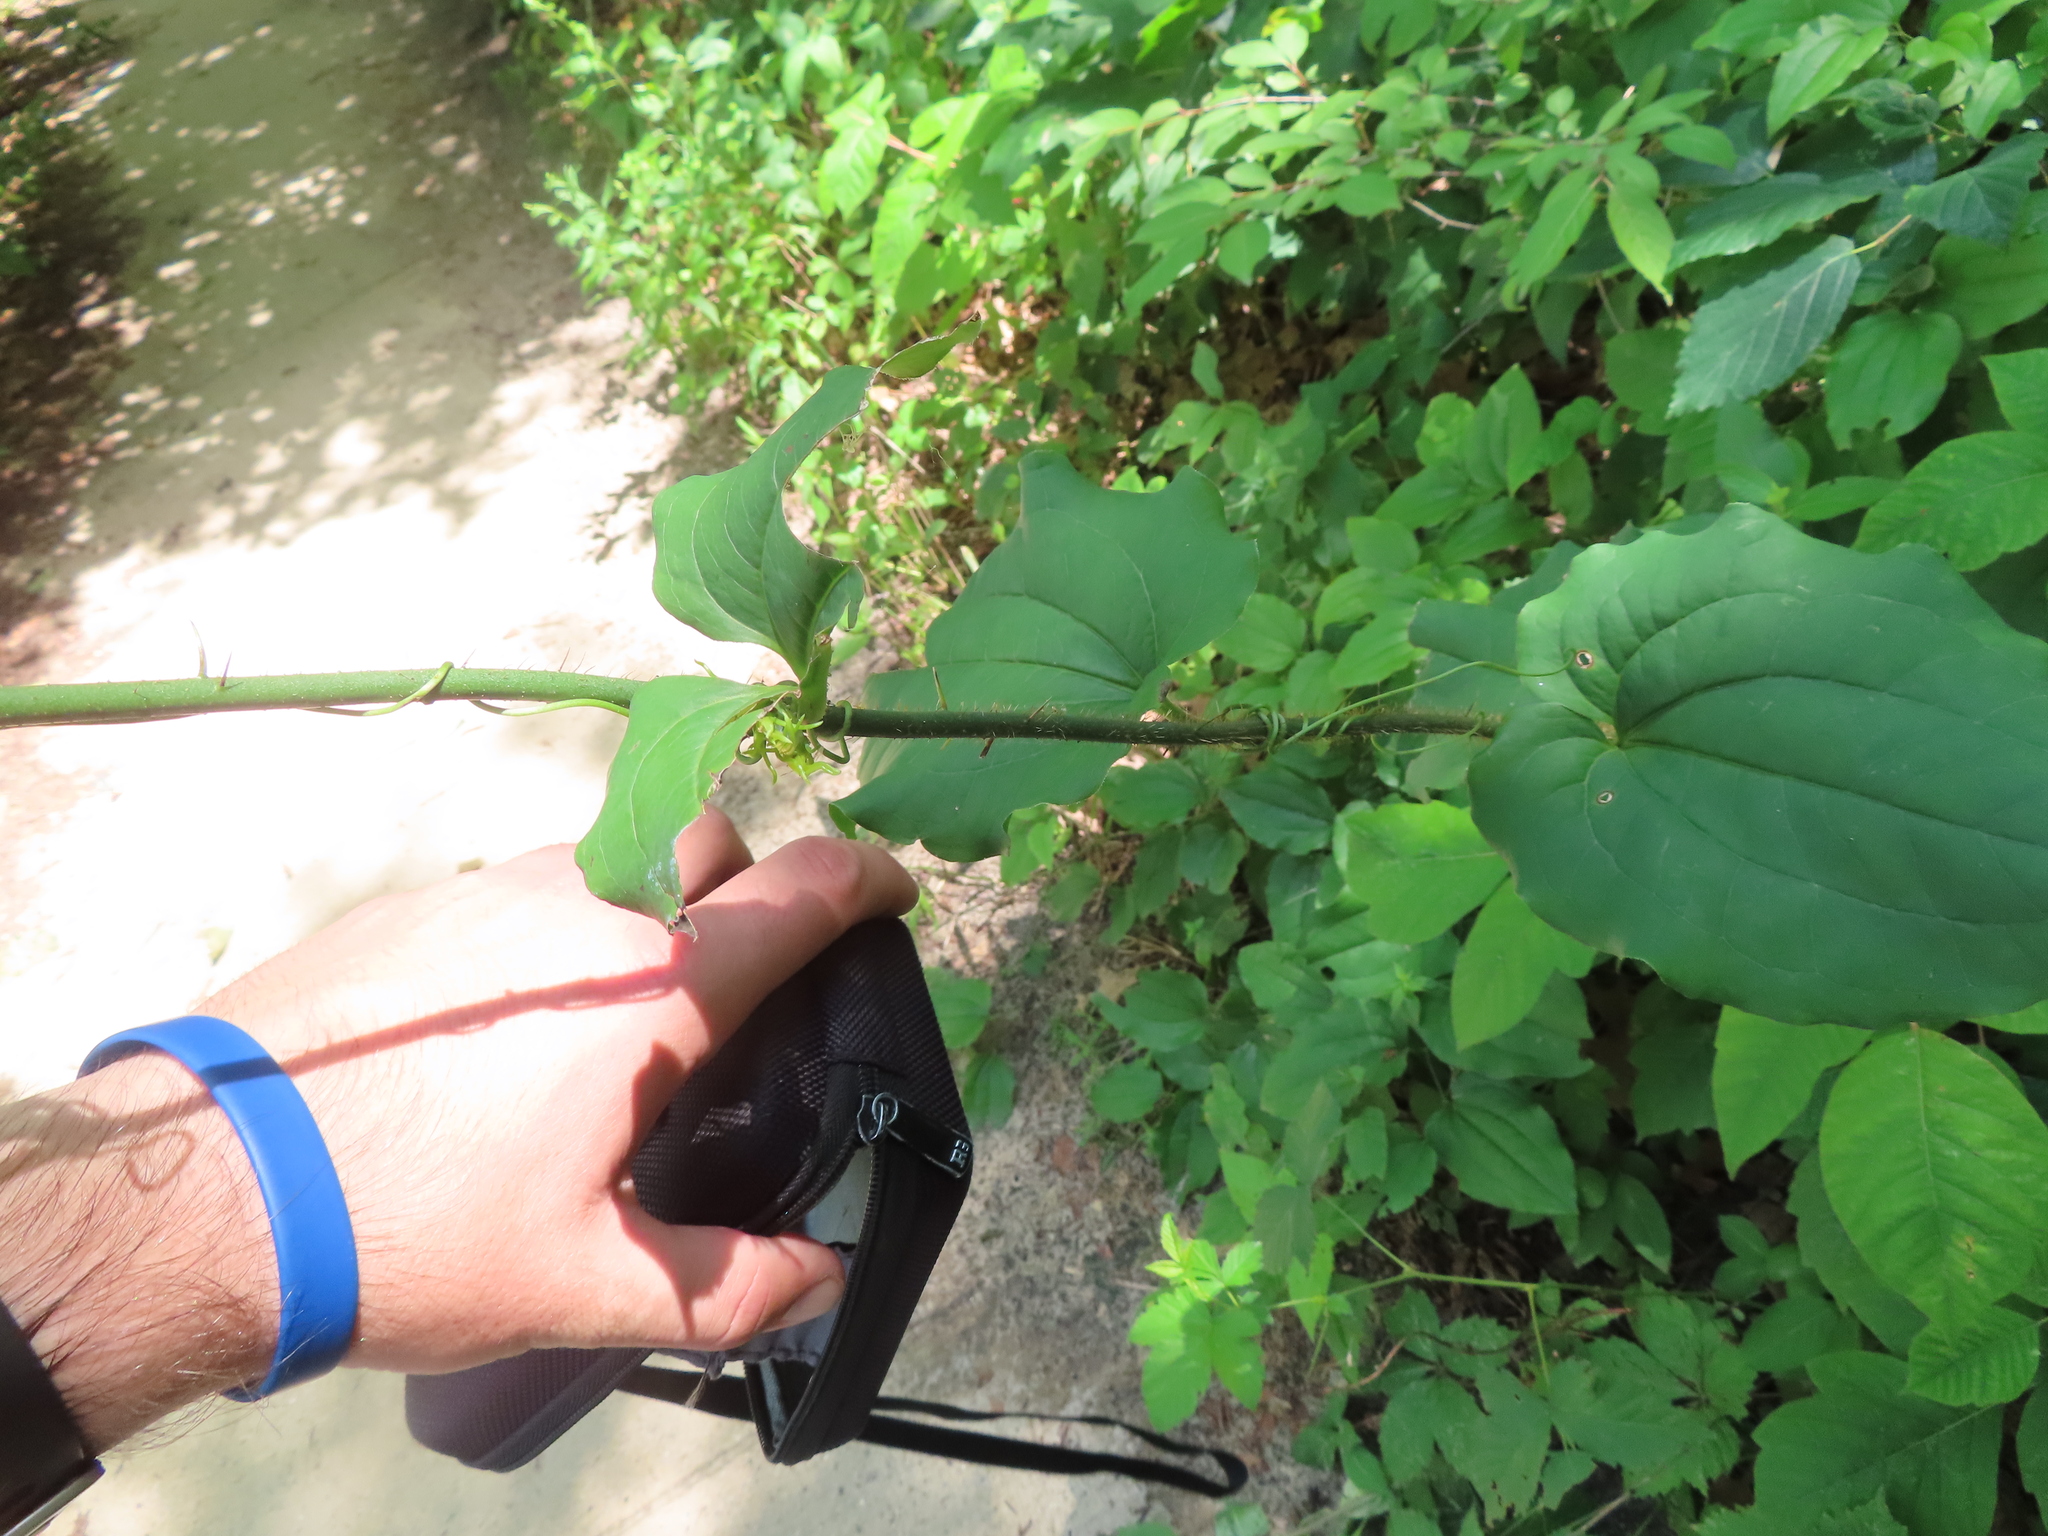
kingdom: Plantae
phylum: Tracheophyta
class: Liliopsida
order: Liliales
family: Smilacaceae
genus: Smilax
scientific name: Smilax tamnoides
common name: Hellfetter
